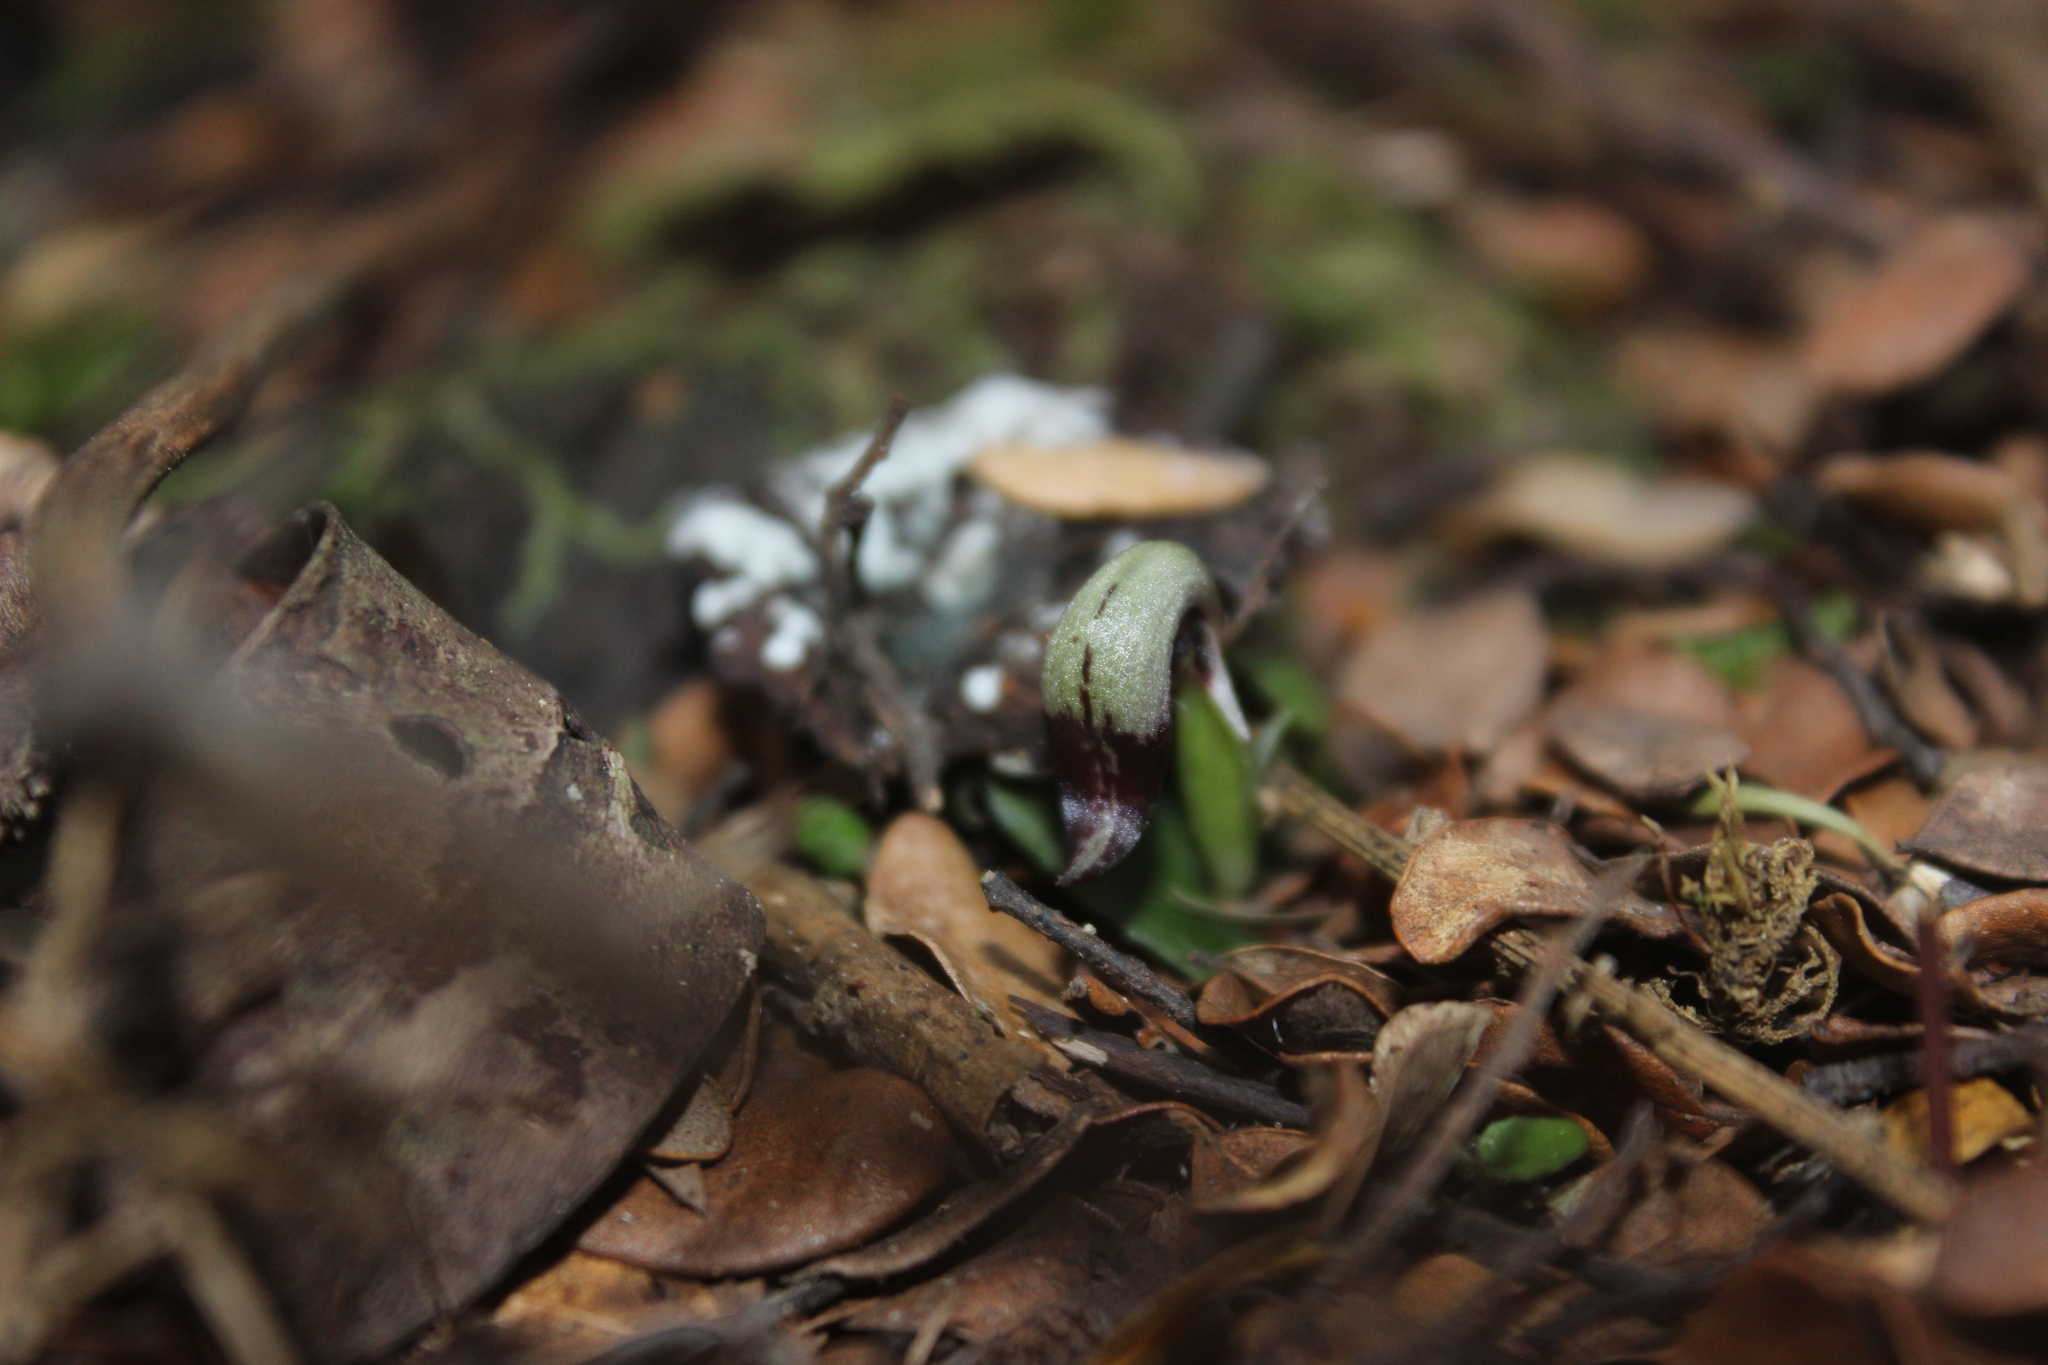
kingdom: Plantae
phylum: Tracheophyta
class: Liliopsida
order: Asparagales
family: Orchidaceae
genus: Corybas
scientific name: Corybas cheesemanii
